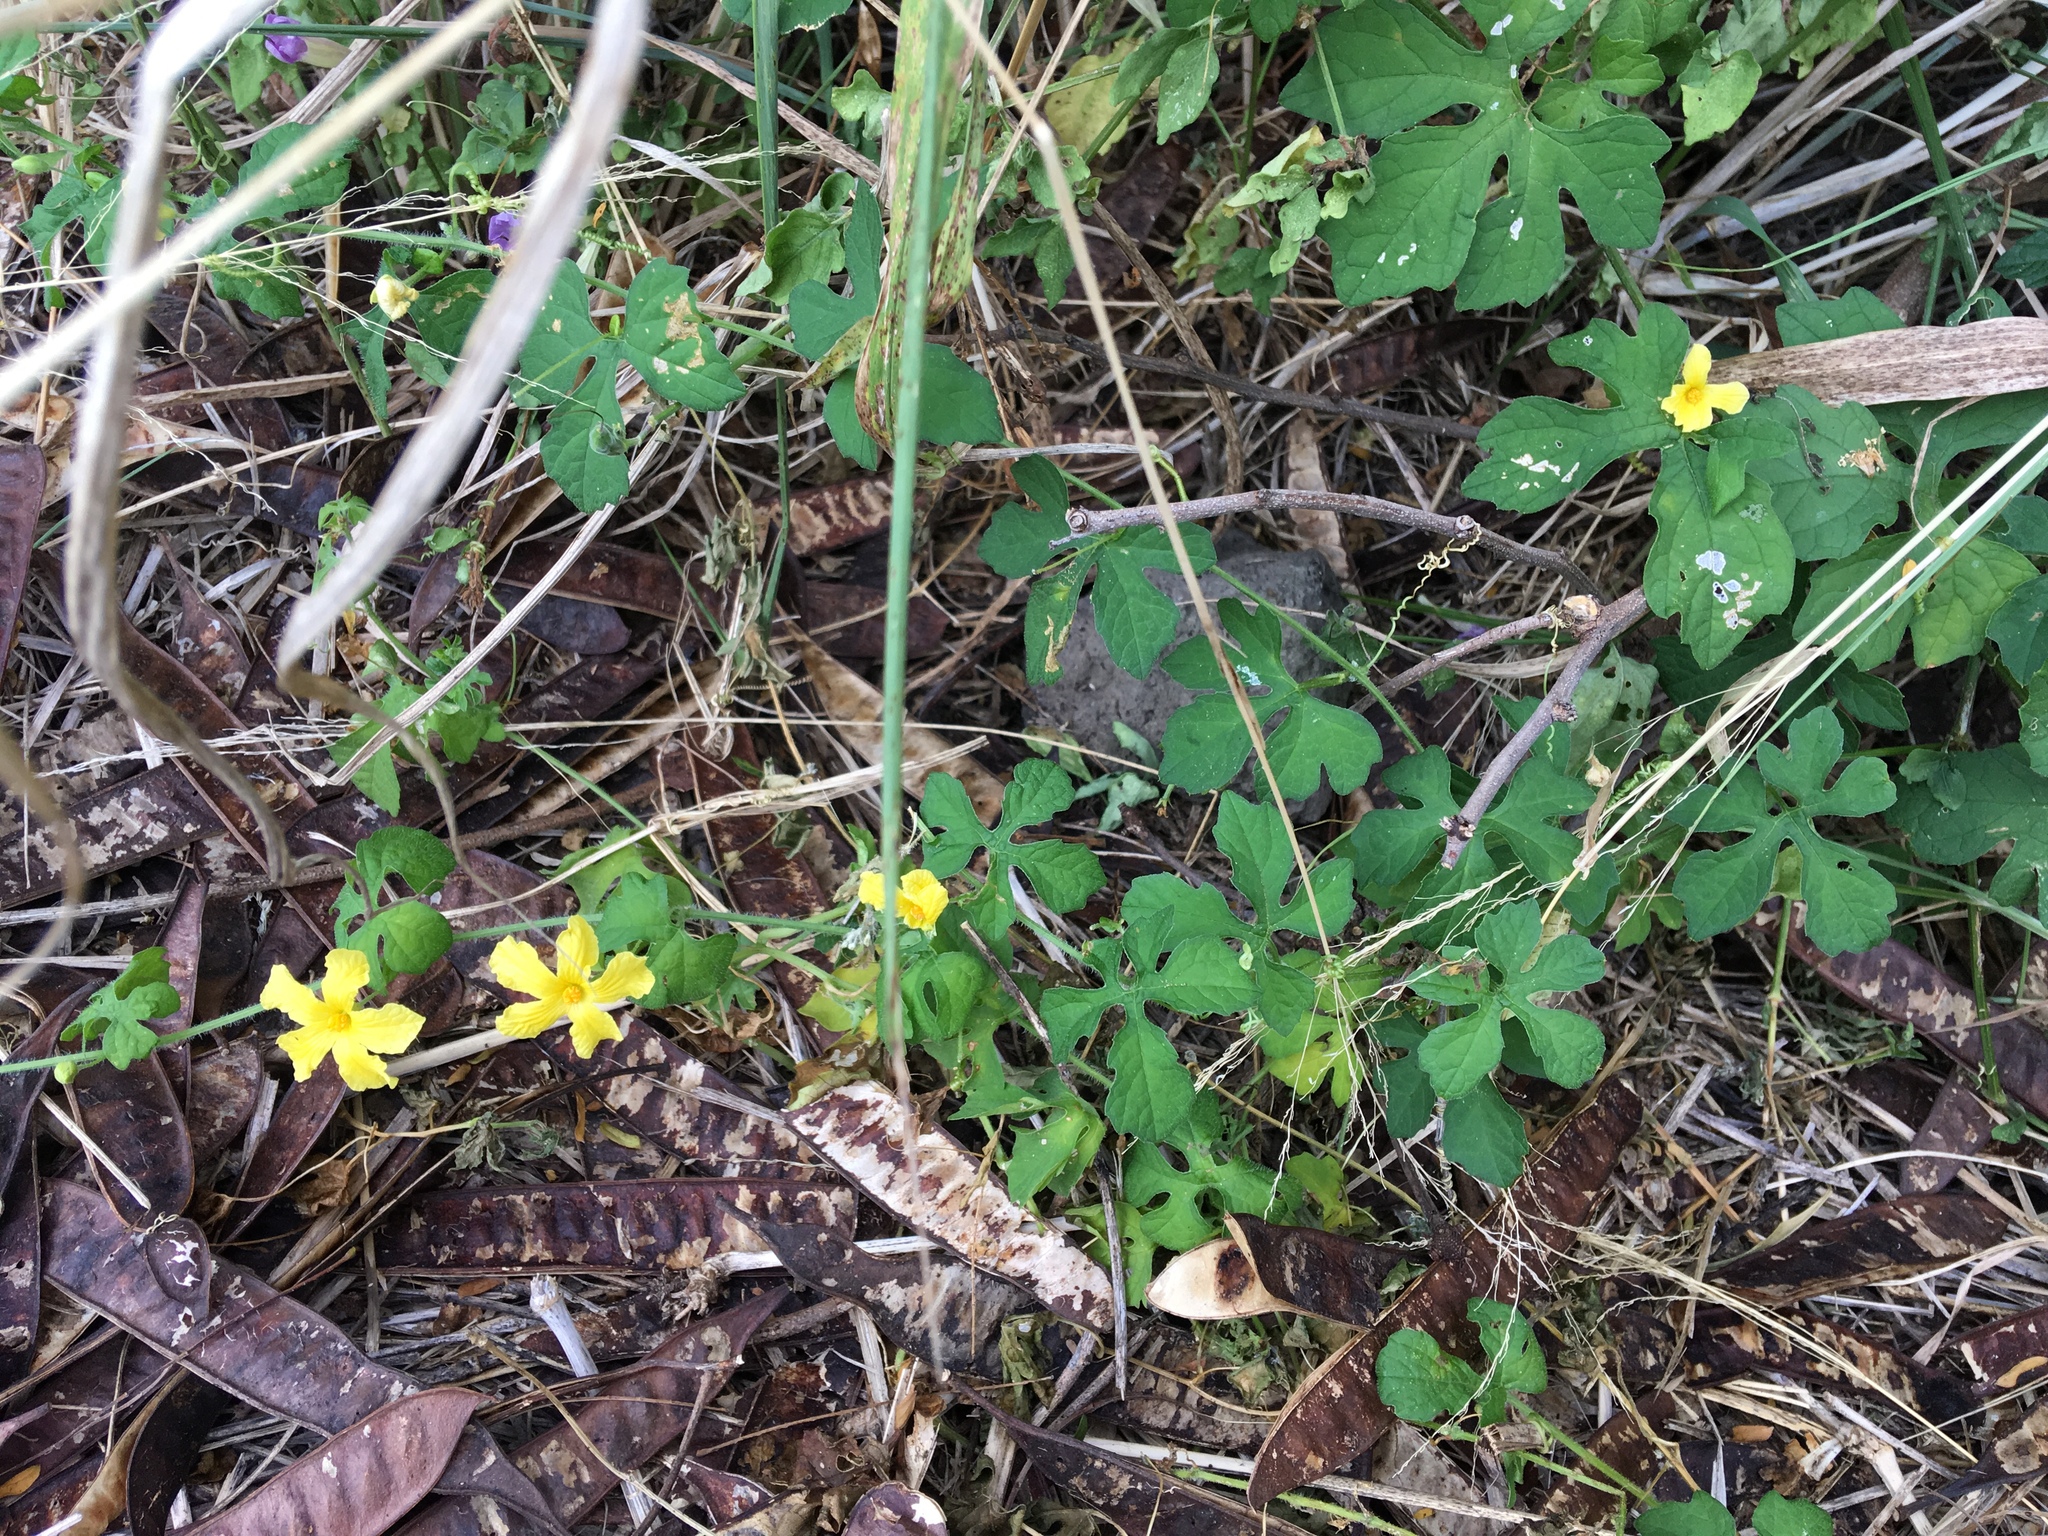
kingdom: Plantae
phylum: Tracheophyta
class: Magnoliopsida
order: Cucurbitales
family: Cucurbitaceae
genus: Momordica
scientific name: Momordica charantia
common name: Balsampear
